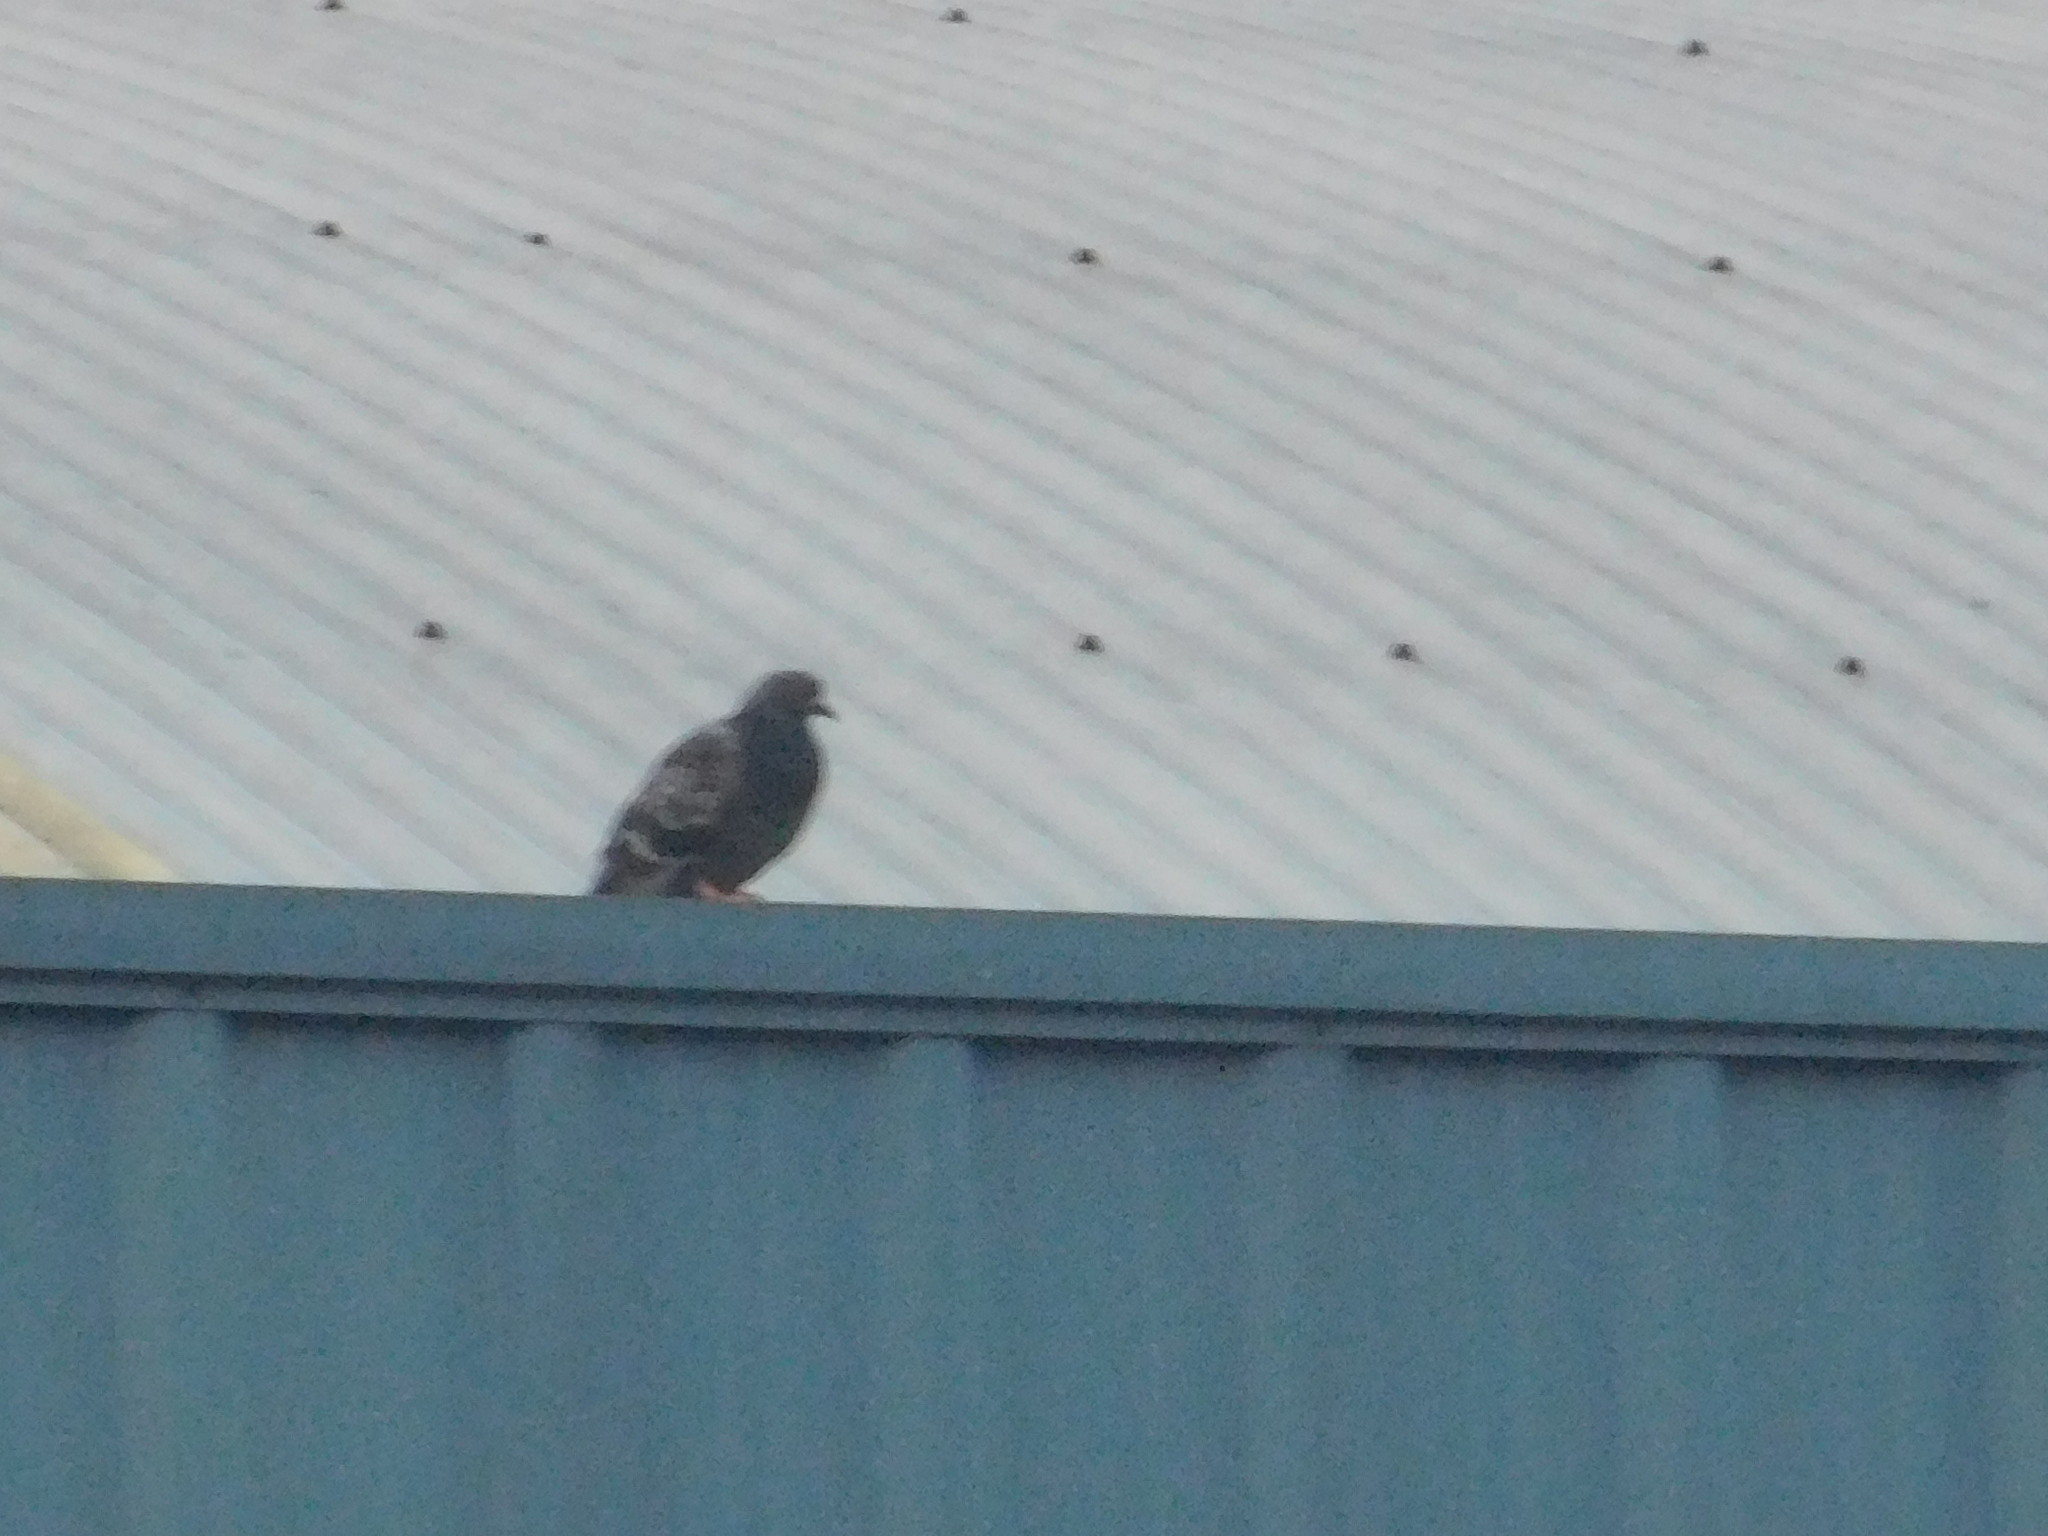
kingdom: Animalia
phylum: Chordata
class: Aves
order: Columbiformes
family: Columbidae
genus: Columba
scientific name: Columba livia
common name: Rock pigeon
